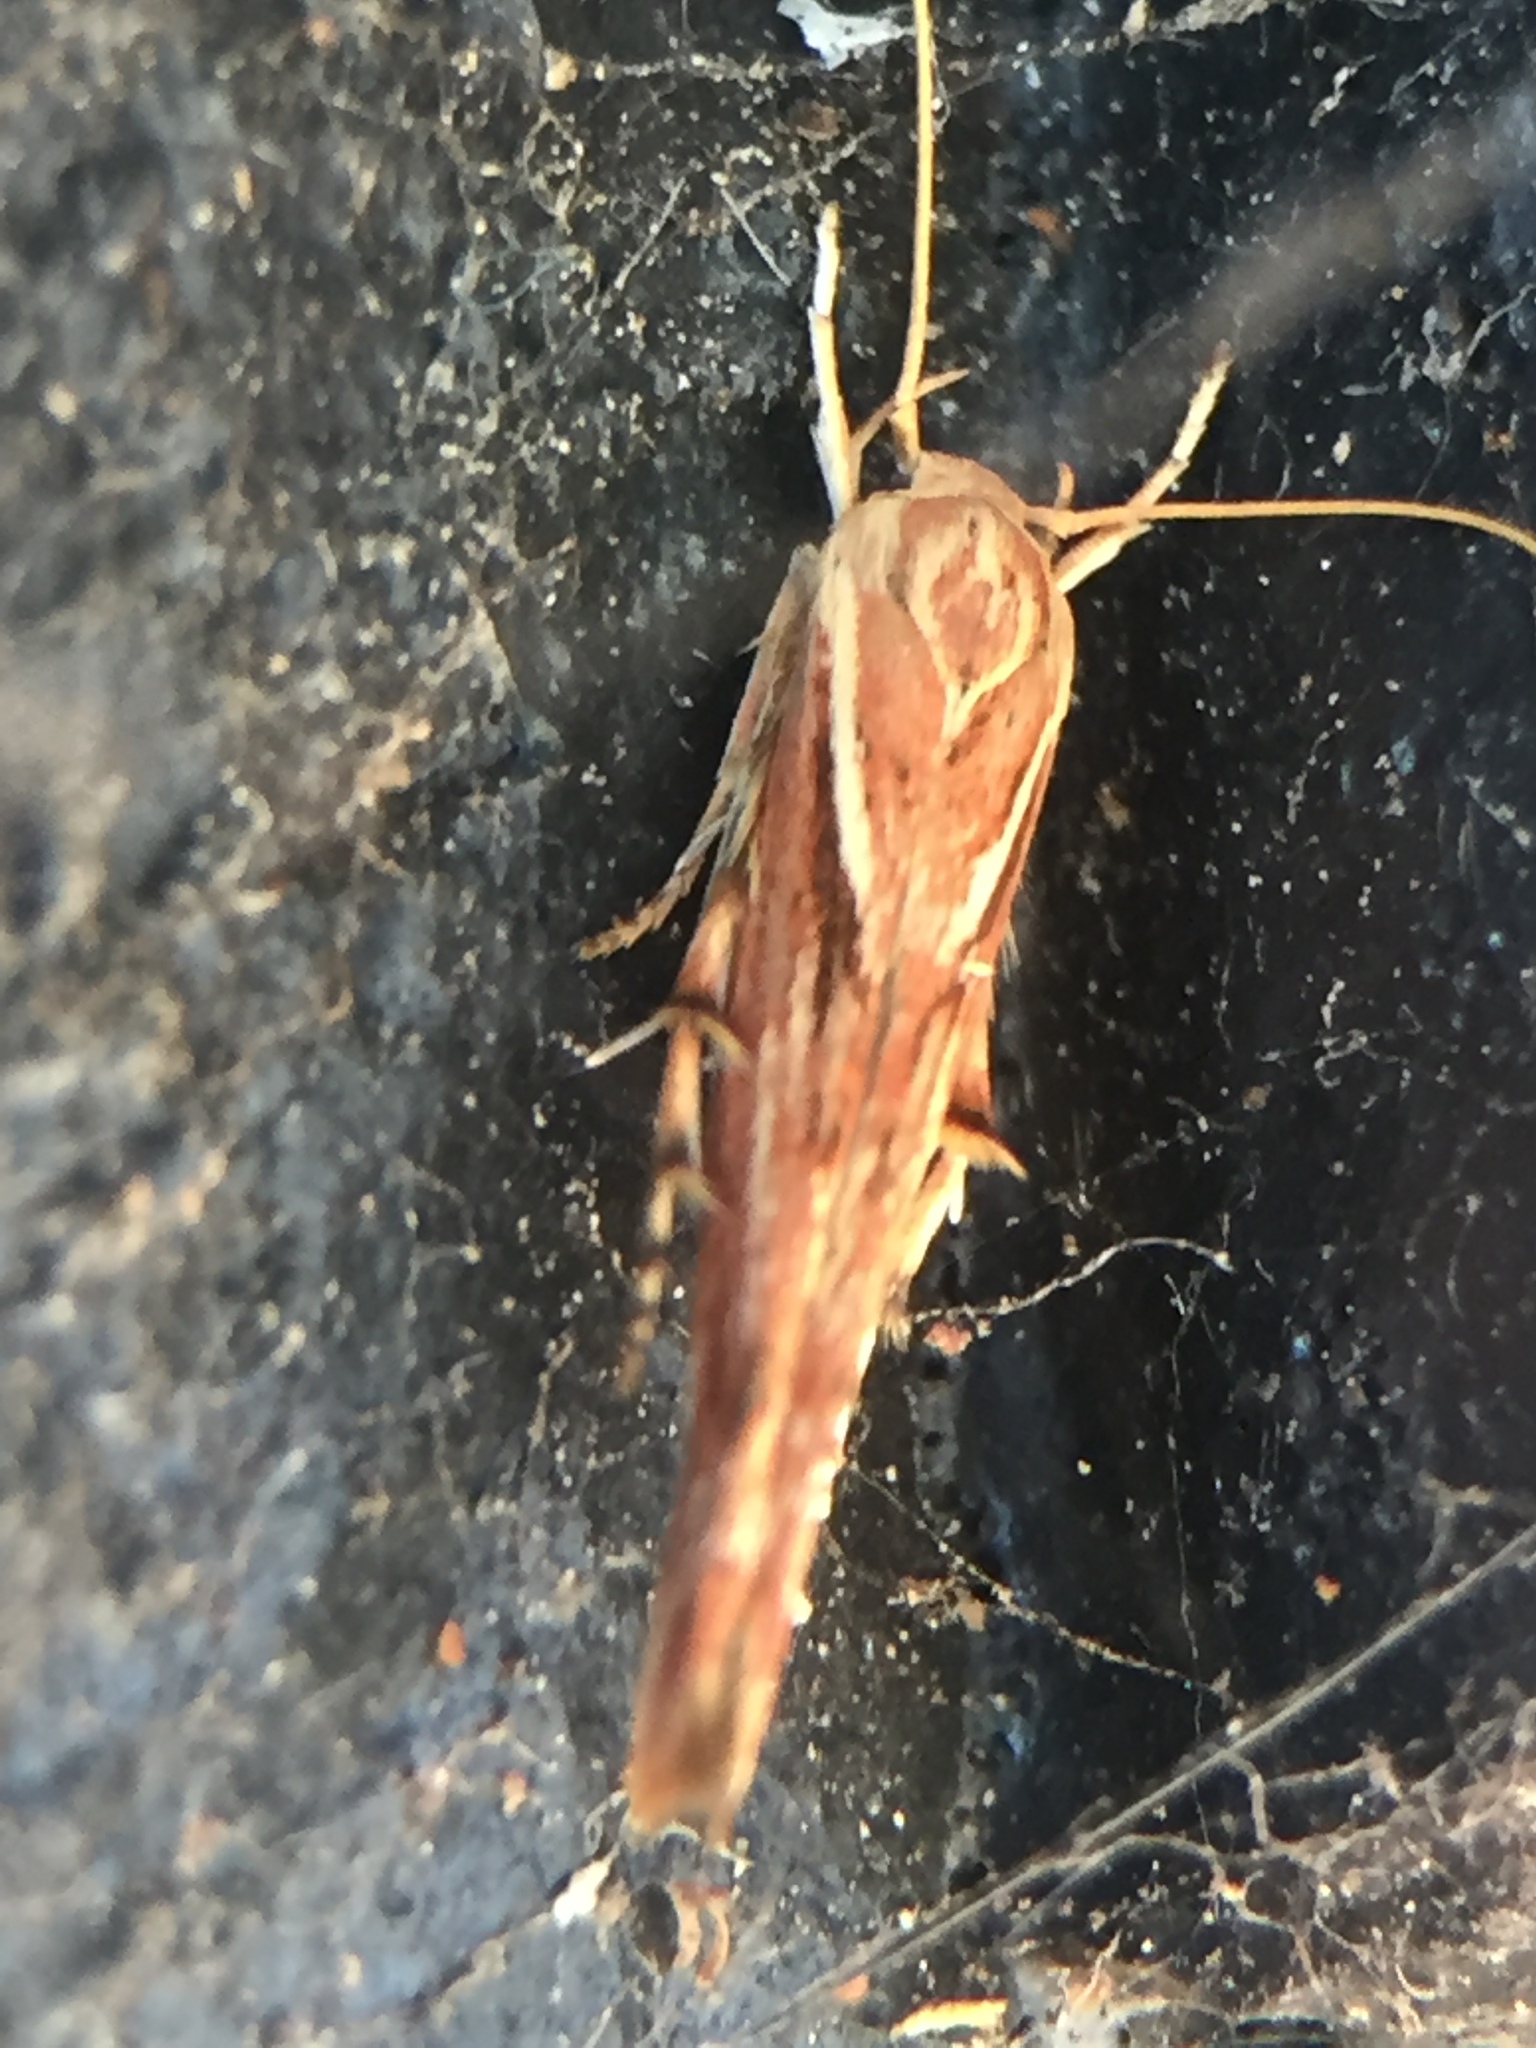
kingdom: Animalia
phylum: Arthropoda
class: Insecta
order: Lepidoptera
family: Stathmopodidae
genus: Stathmopoda
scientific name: Stathmopoda cephalaea
